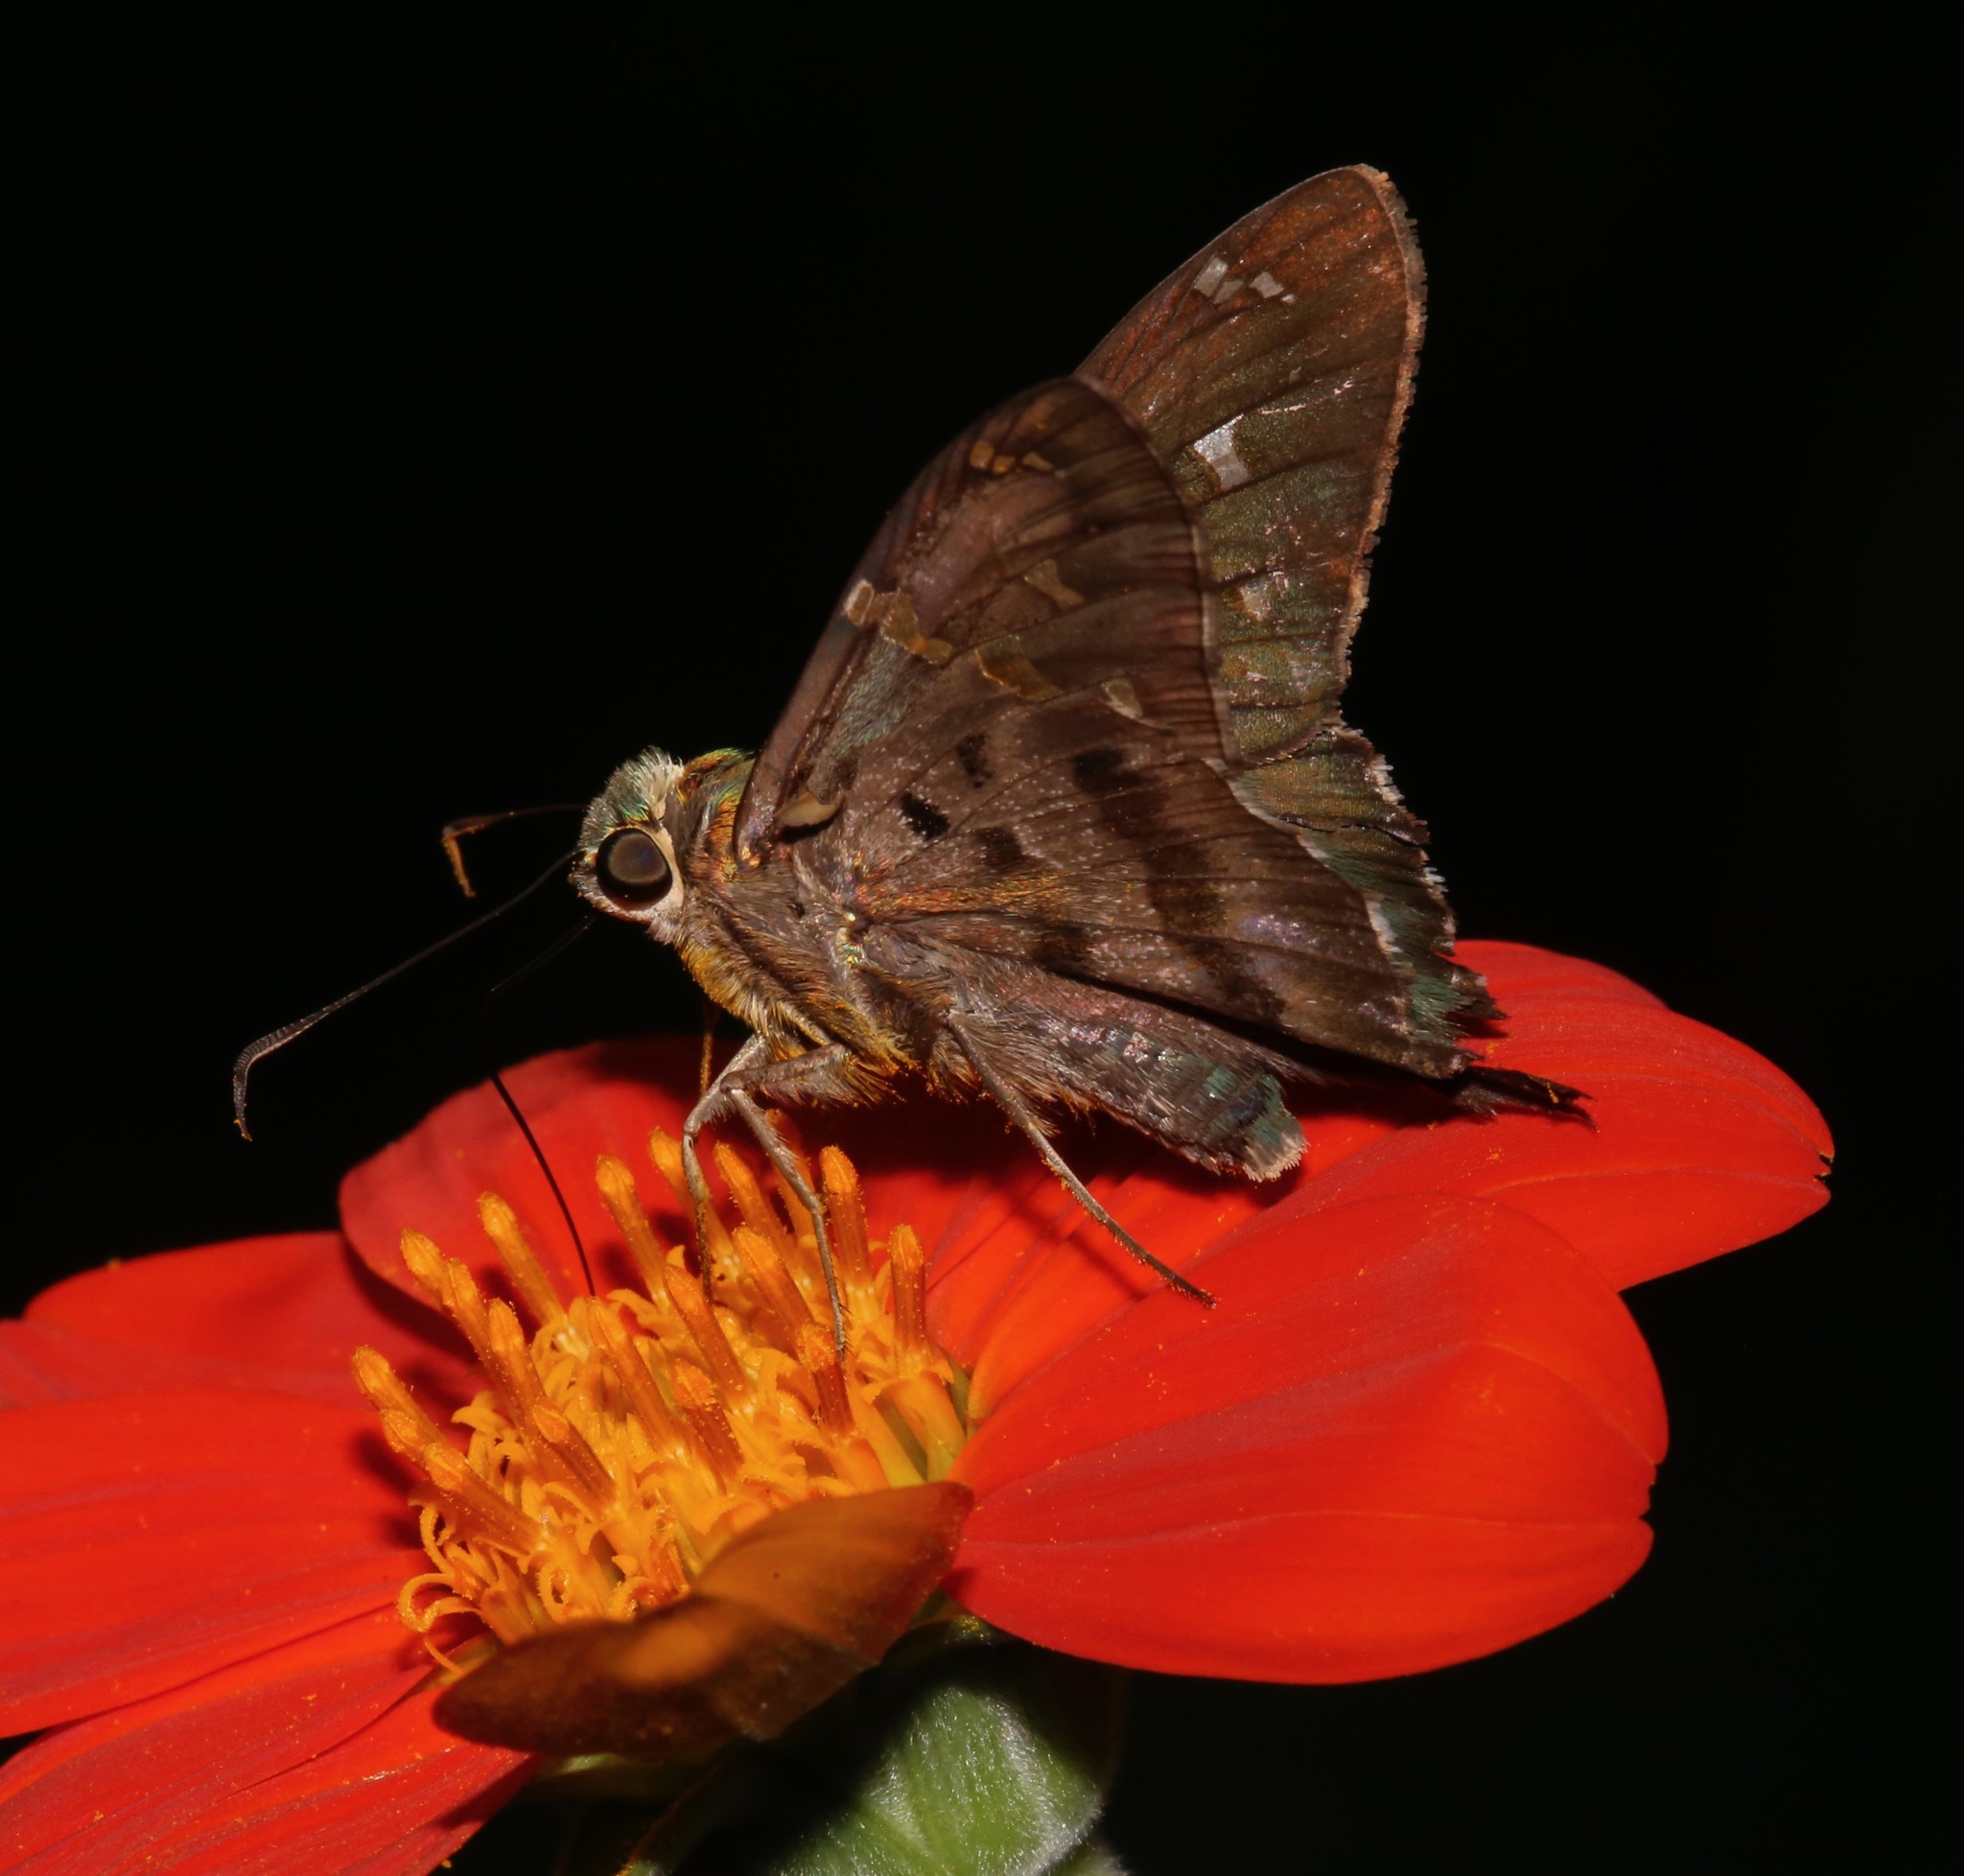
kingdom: Animalia
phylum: Arthropoda
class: Insecta
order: Lepidoptera
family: Hesperiidae
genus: Urbanus
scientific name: Urbanus proteus
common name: Long-tailed skipper
